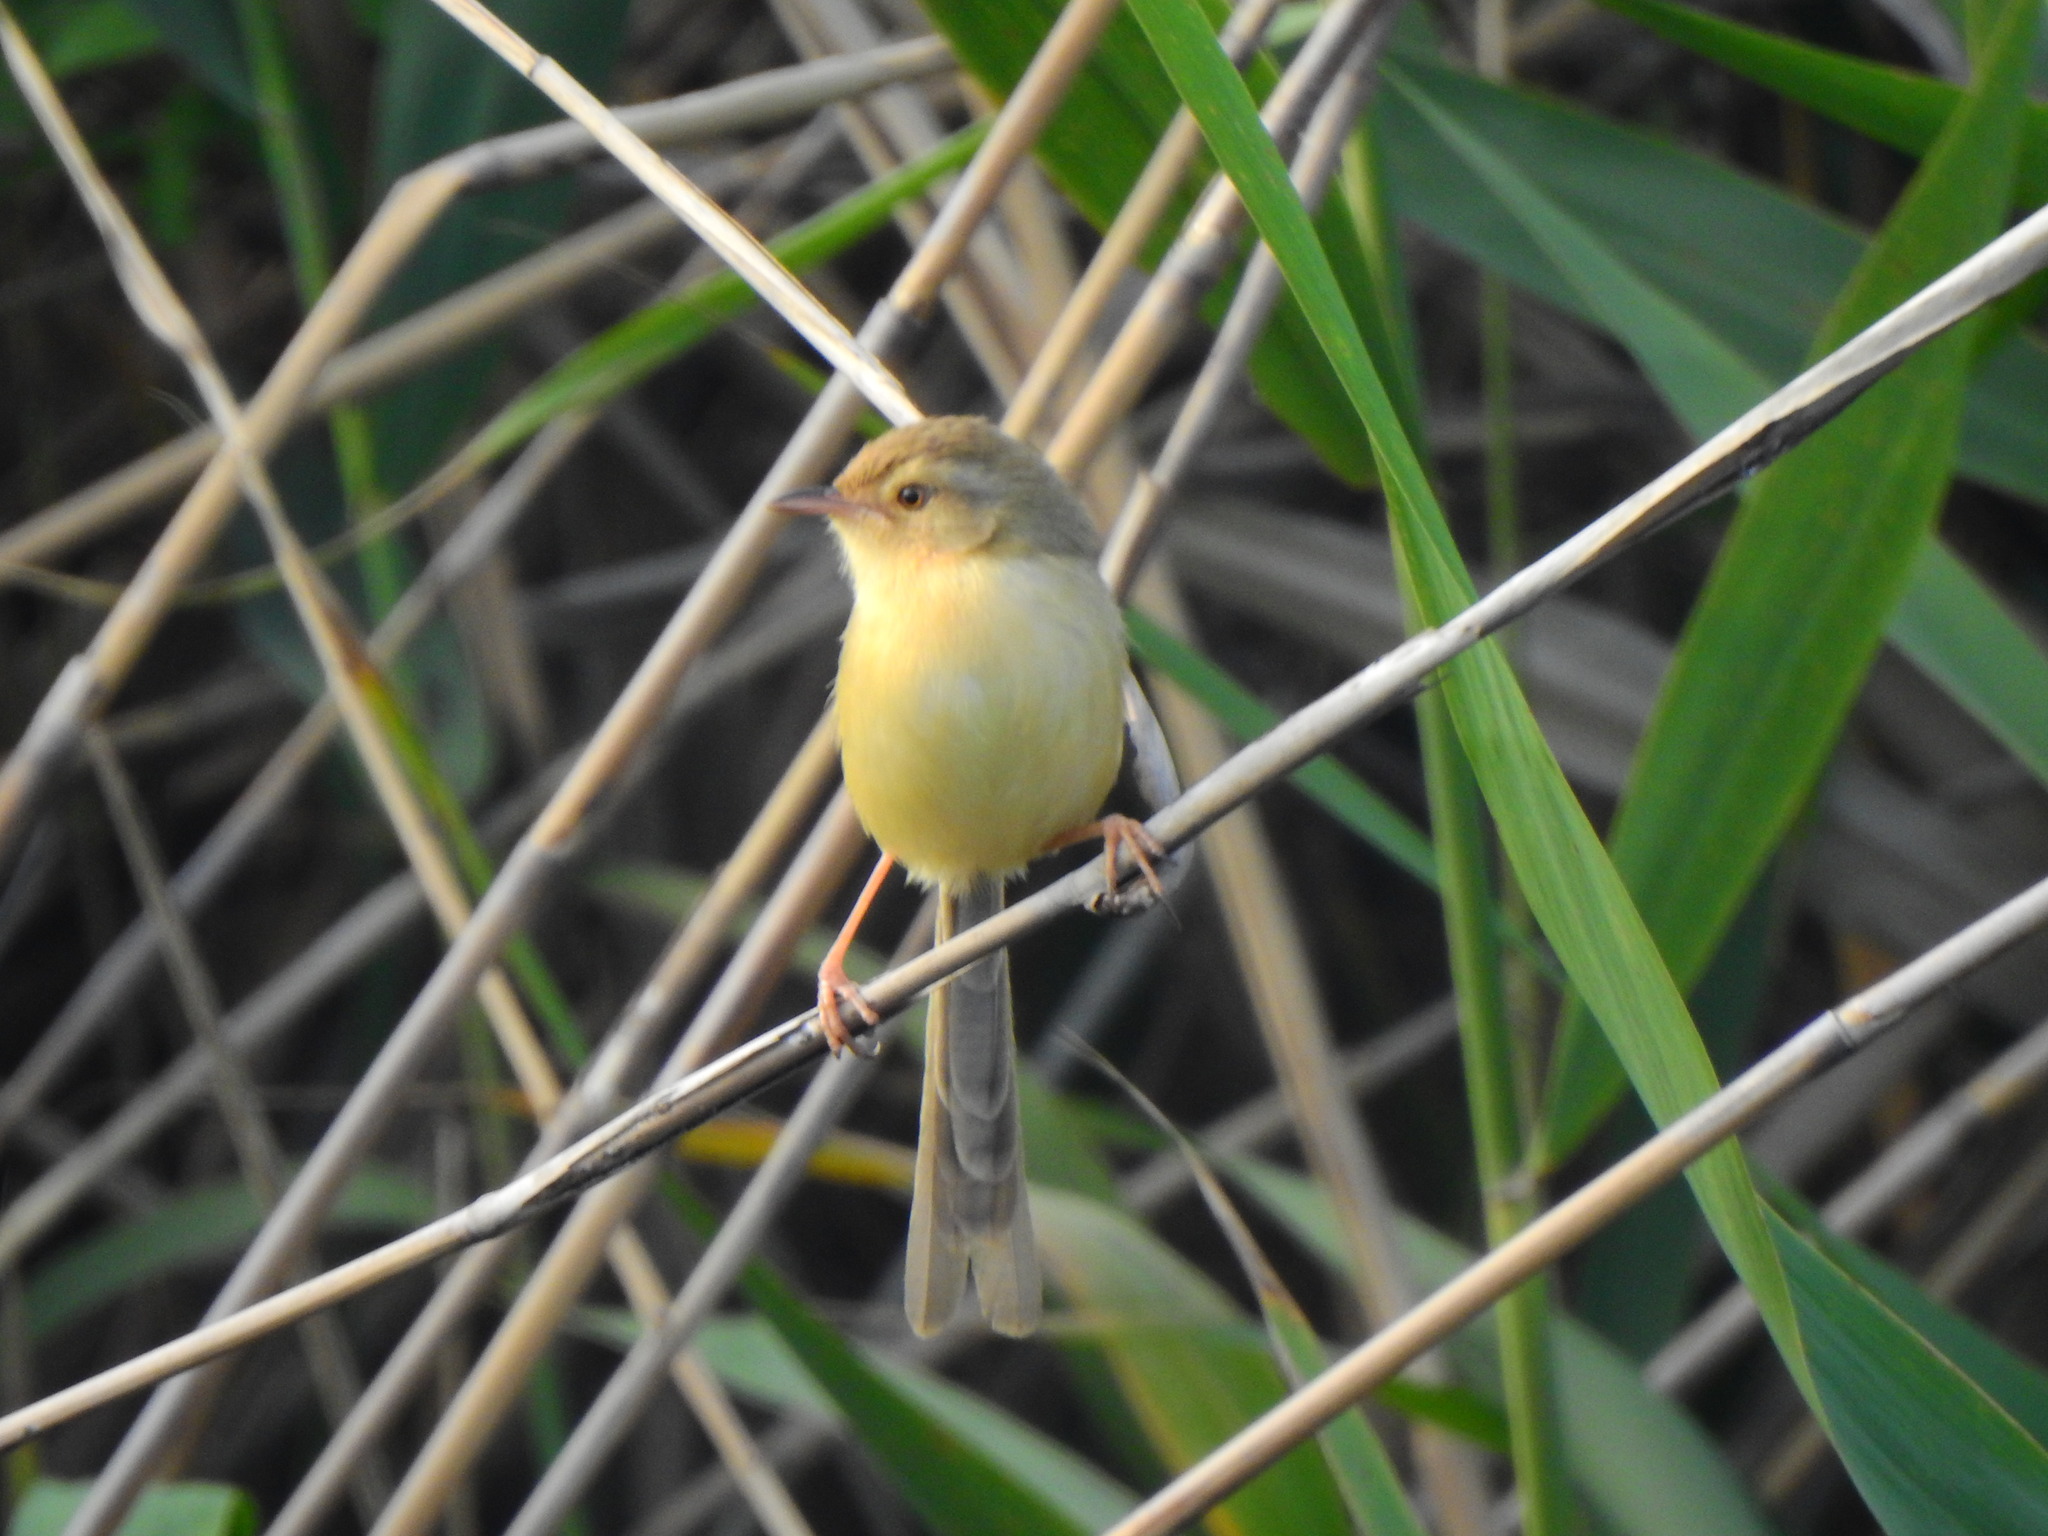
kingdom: Animalia
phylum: Chordata
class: Aves
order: Passeriformes
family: Cisticolidae
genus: Prinia
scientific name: Prinia inornata
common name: Plain prinia
